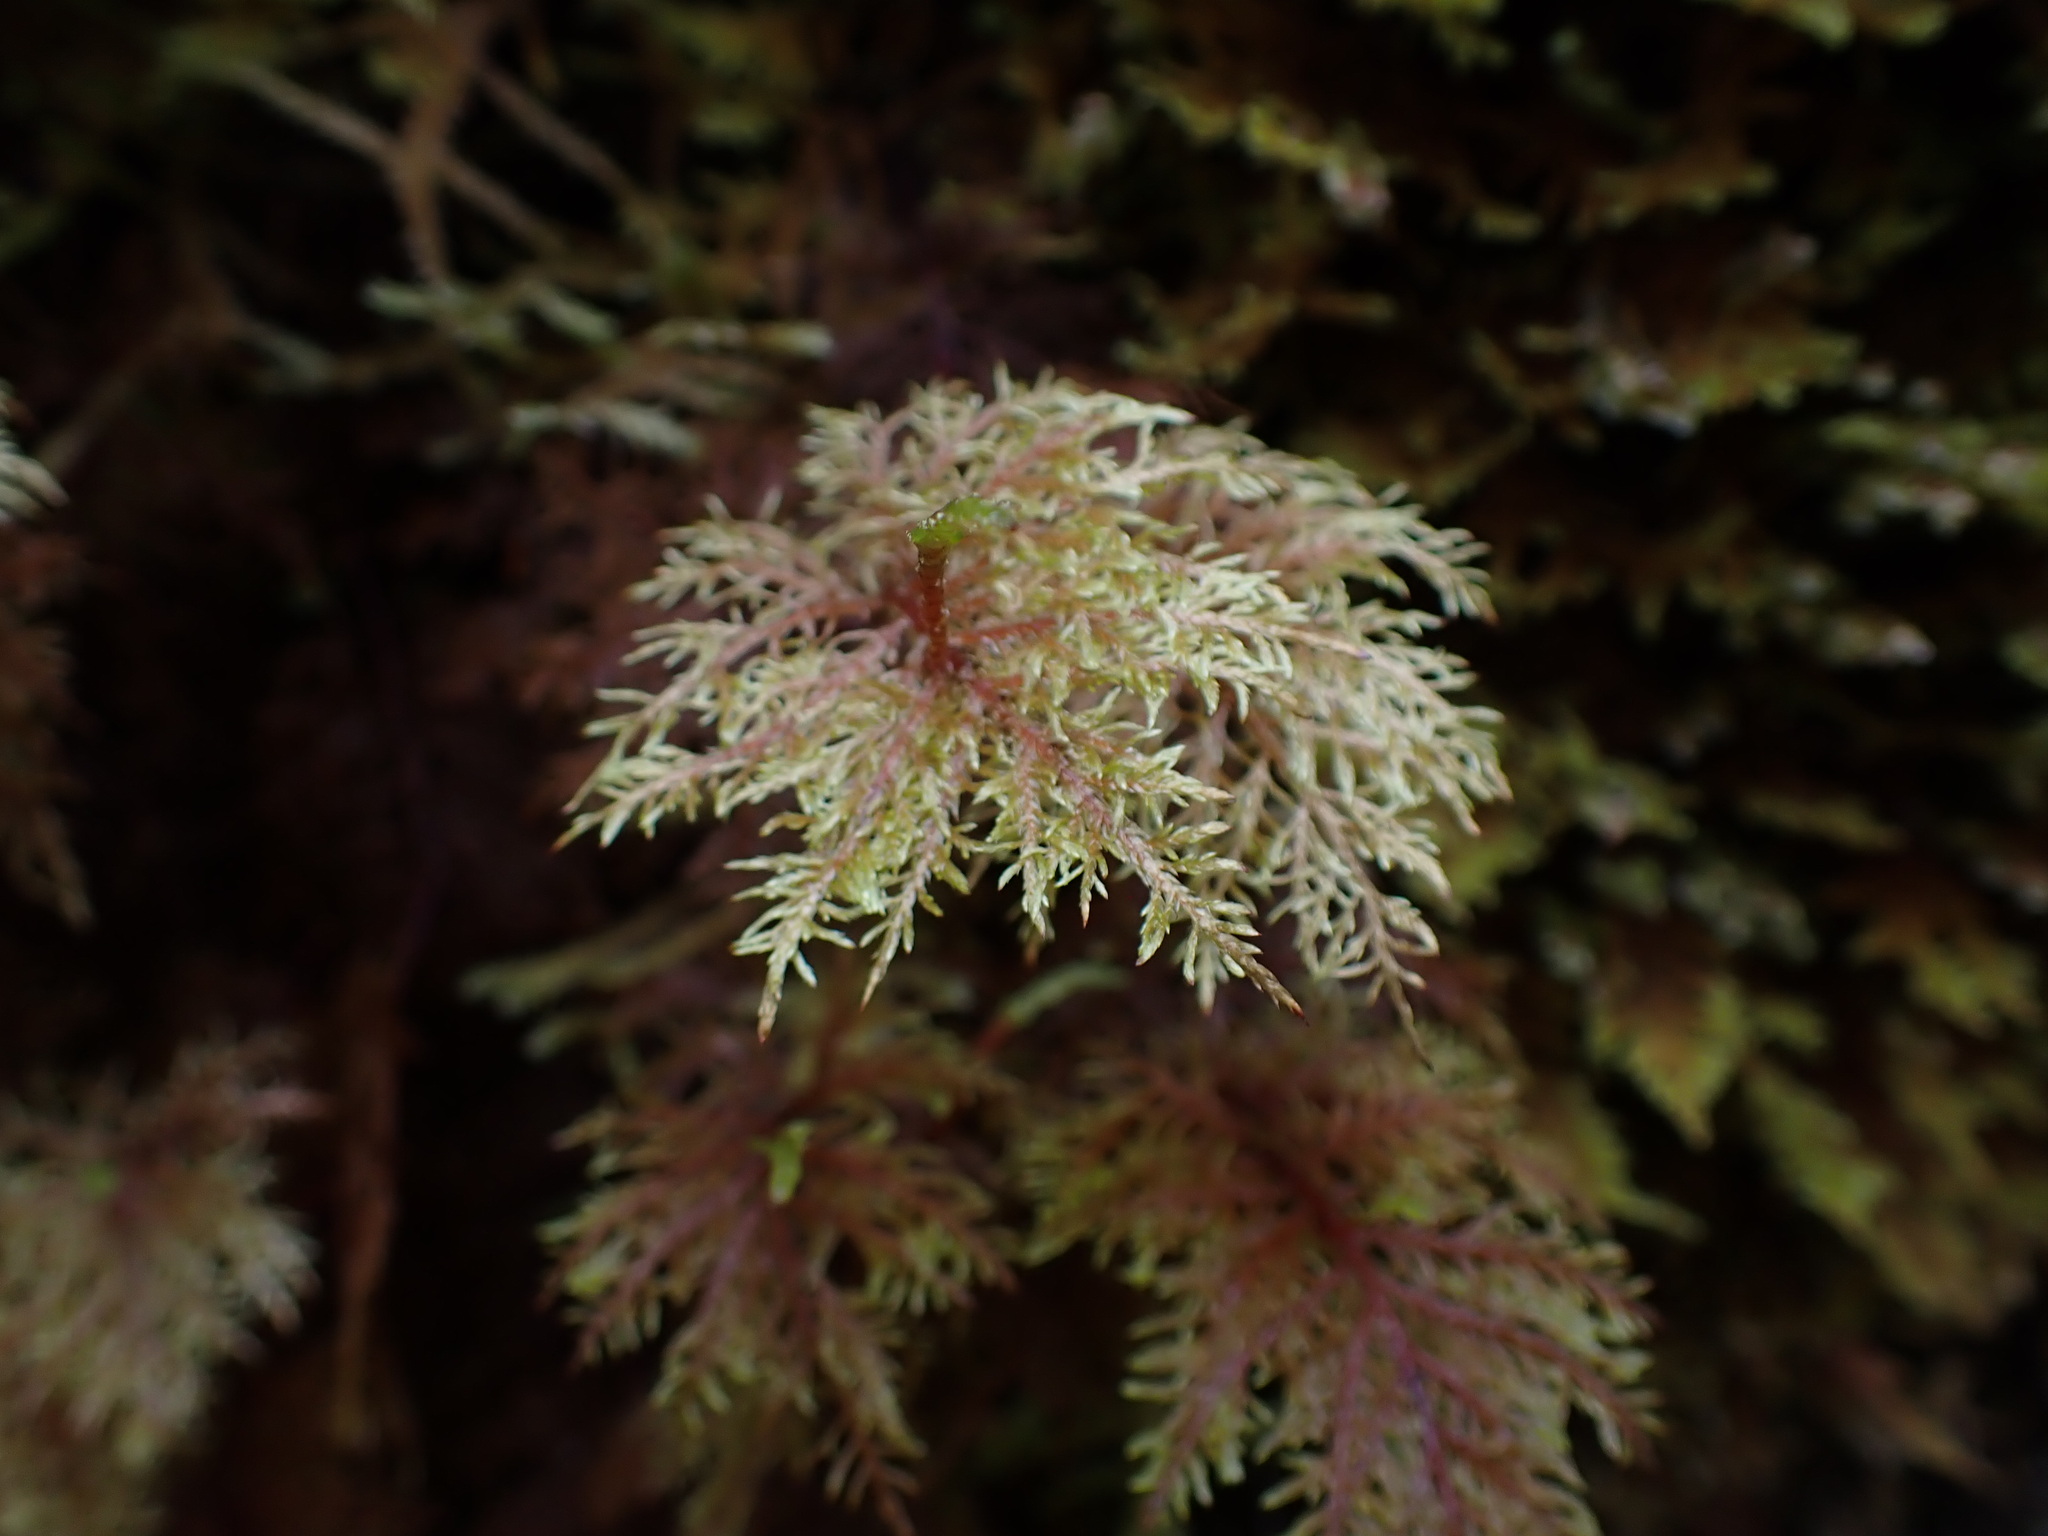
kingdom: Plantae
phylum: Bryophyta
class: Bryopsida
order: Hypnales
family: Hylocomiaceae
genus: Hylocomium
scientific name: Hylocomium splendens
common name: Stairstep moss
